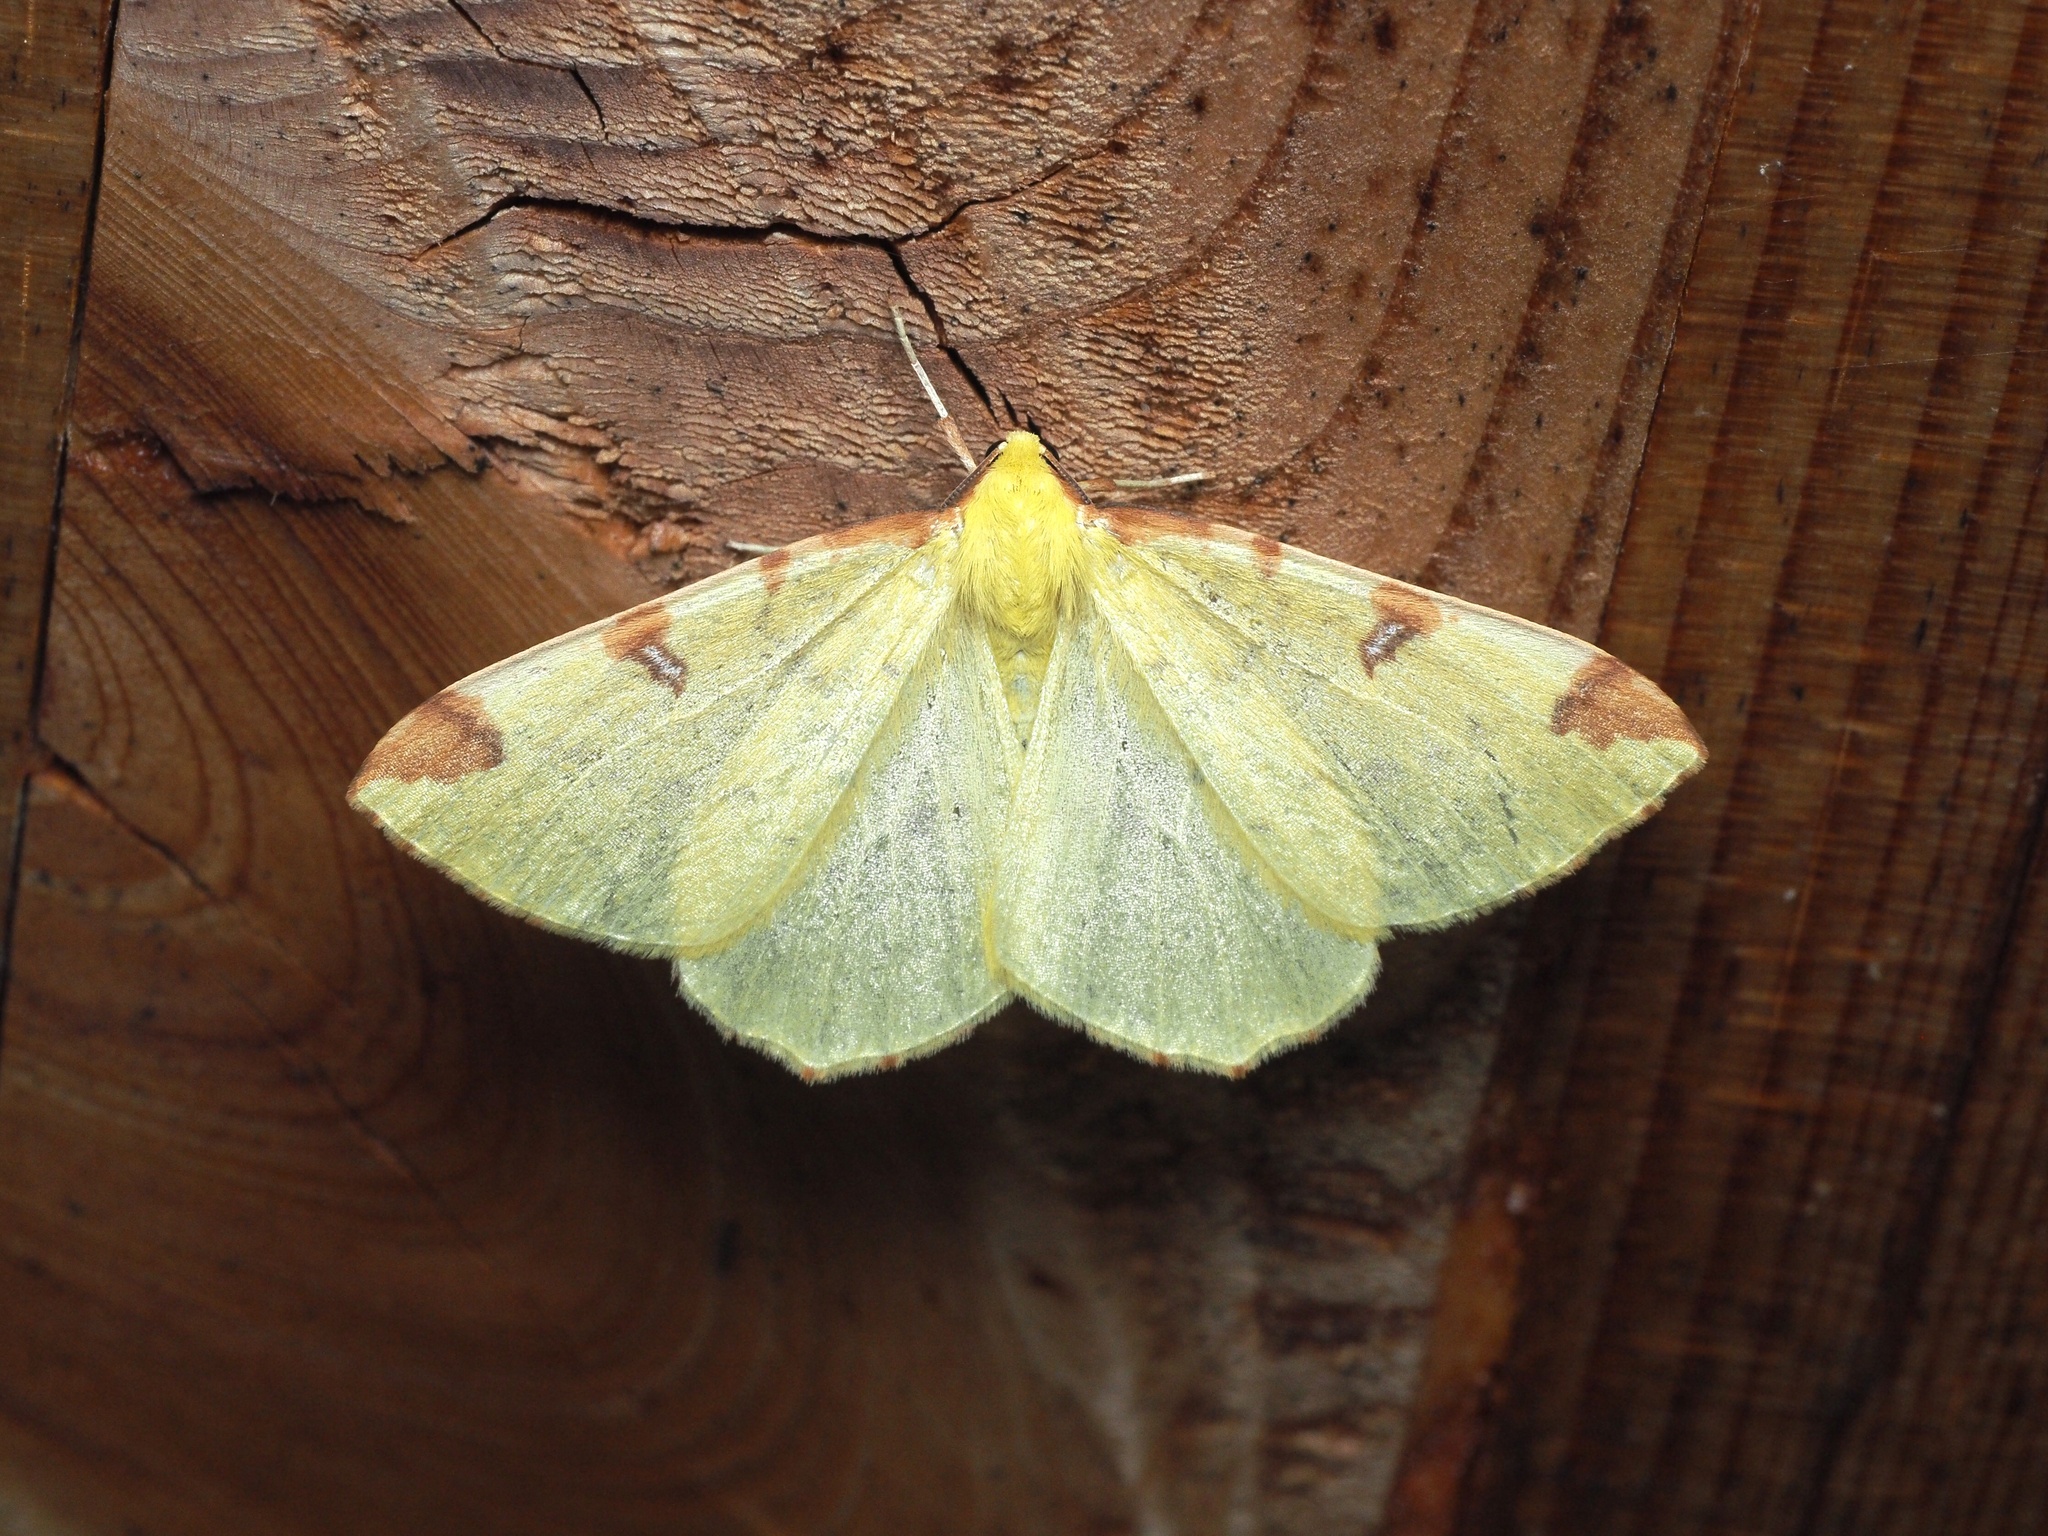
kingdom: Animalia
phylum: Arthropoda
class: Insecta
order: Lepidoptera
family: Geometridae
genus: Opisthograptis
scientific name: Opisthograptis luteolata
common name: Brimstone moth
